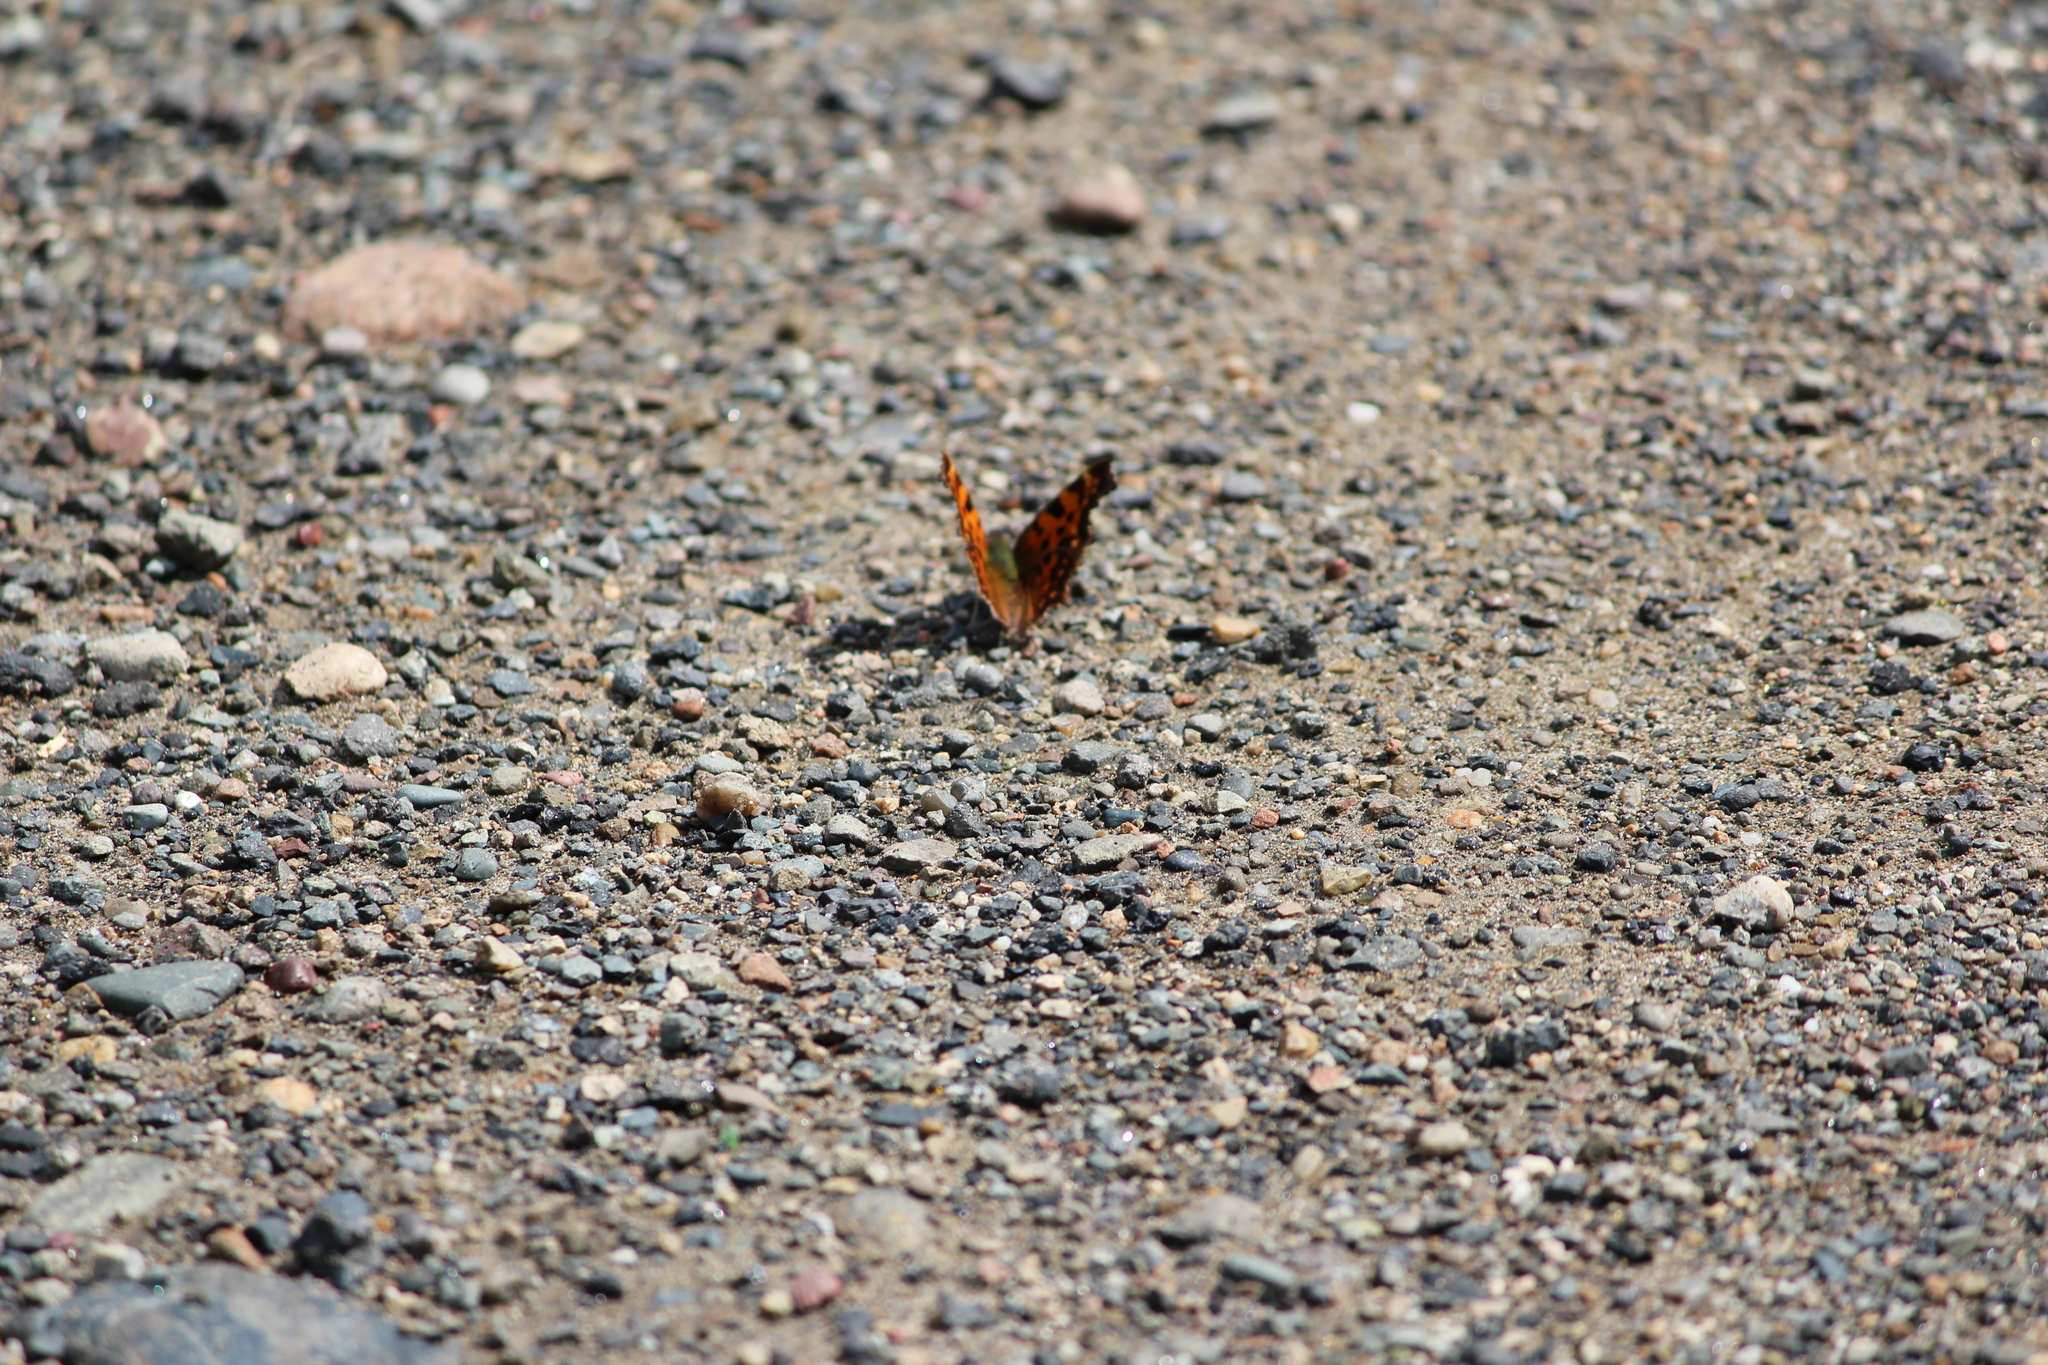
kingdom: Animalia
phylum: Arthropoda
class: Insecta
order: Lepidoptera
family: Nymphalidae
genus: Polygonia
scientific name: Polygonia c-album
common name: Comma
